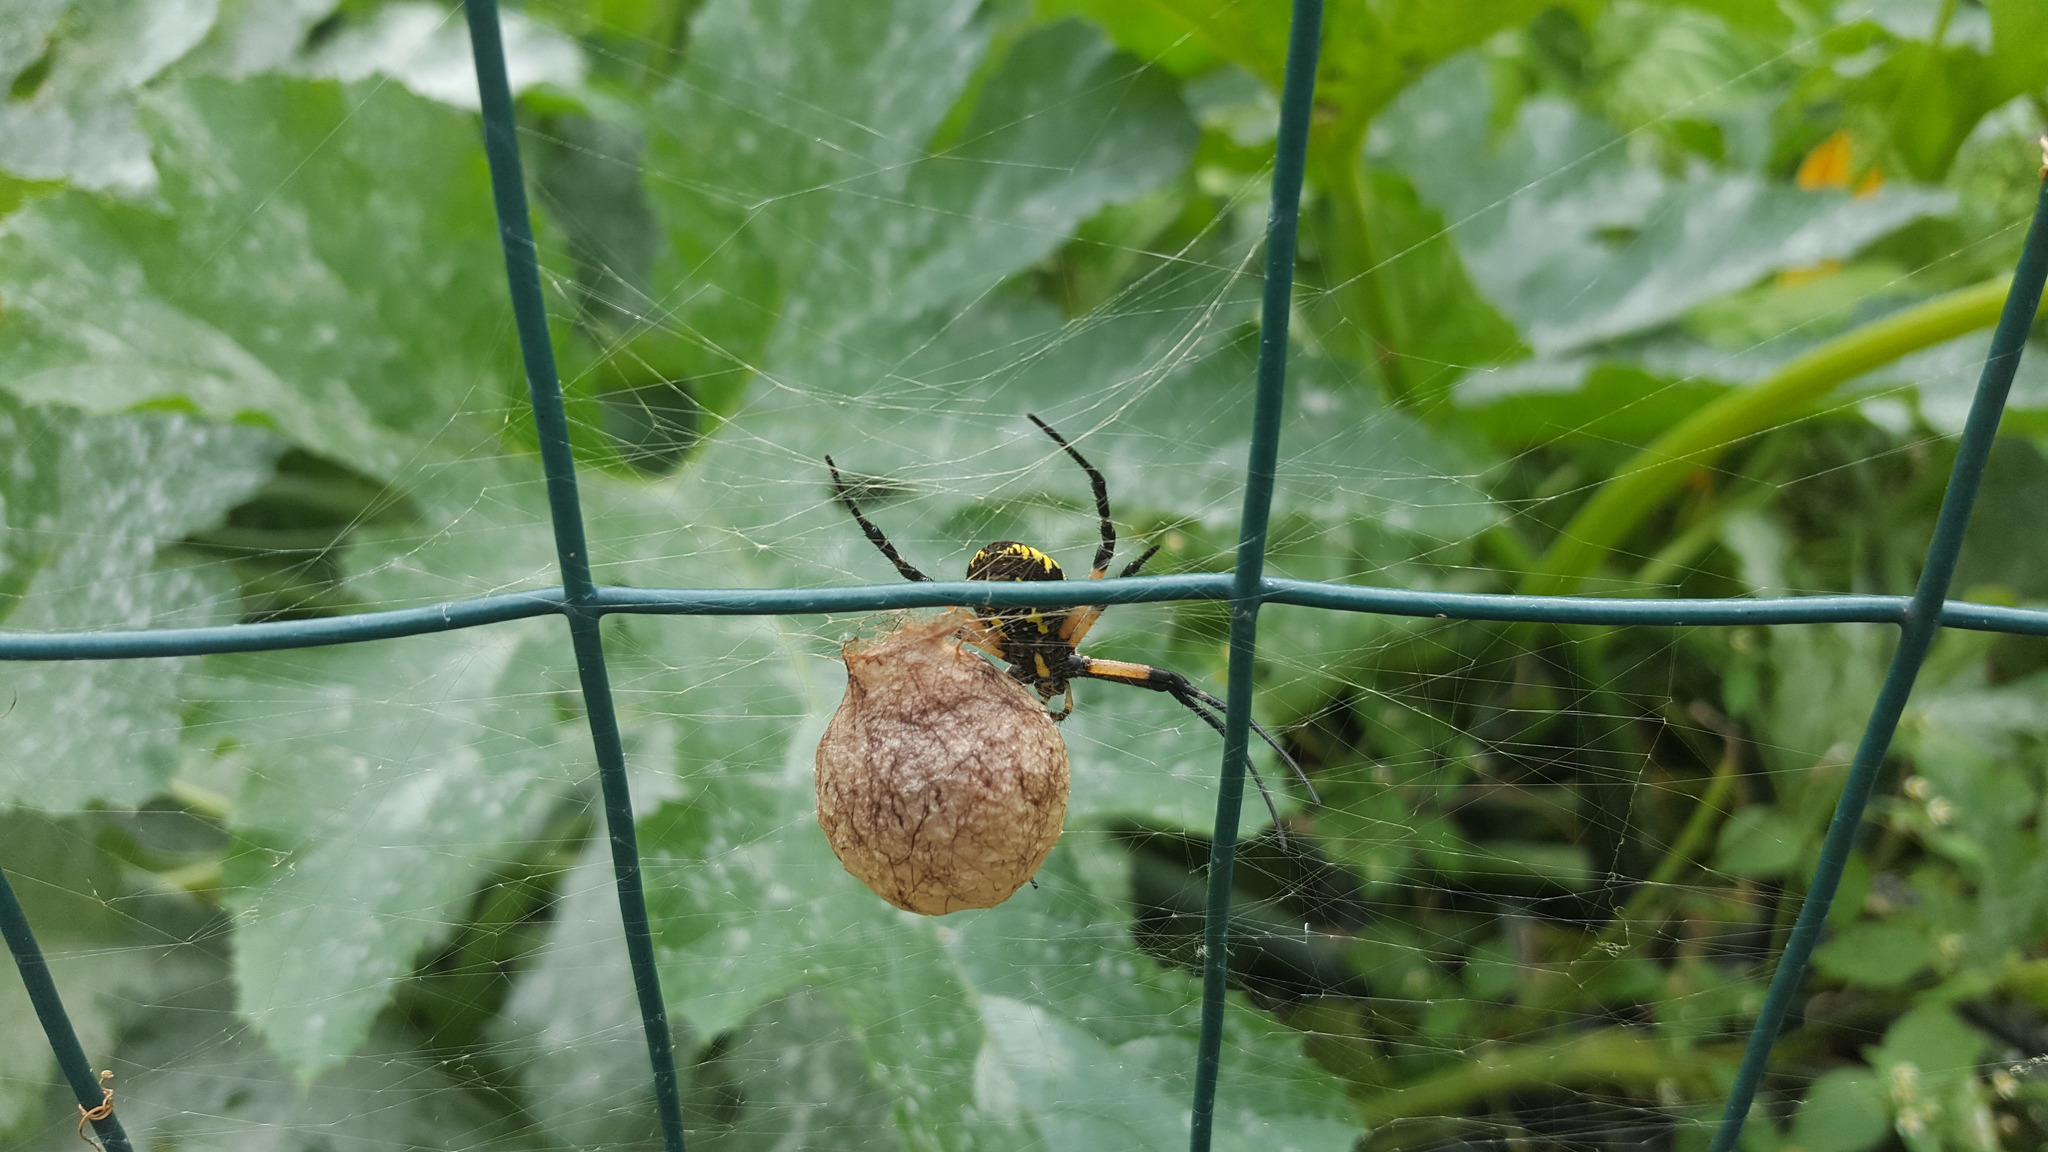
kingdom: Animalia
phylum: Arthropoda
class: Arachnida
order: Araneae
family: Araneidae
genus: Argiope
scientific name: Argiope aurantia
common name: Orb weavers
